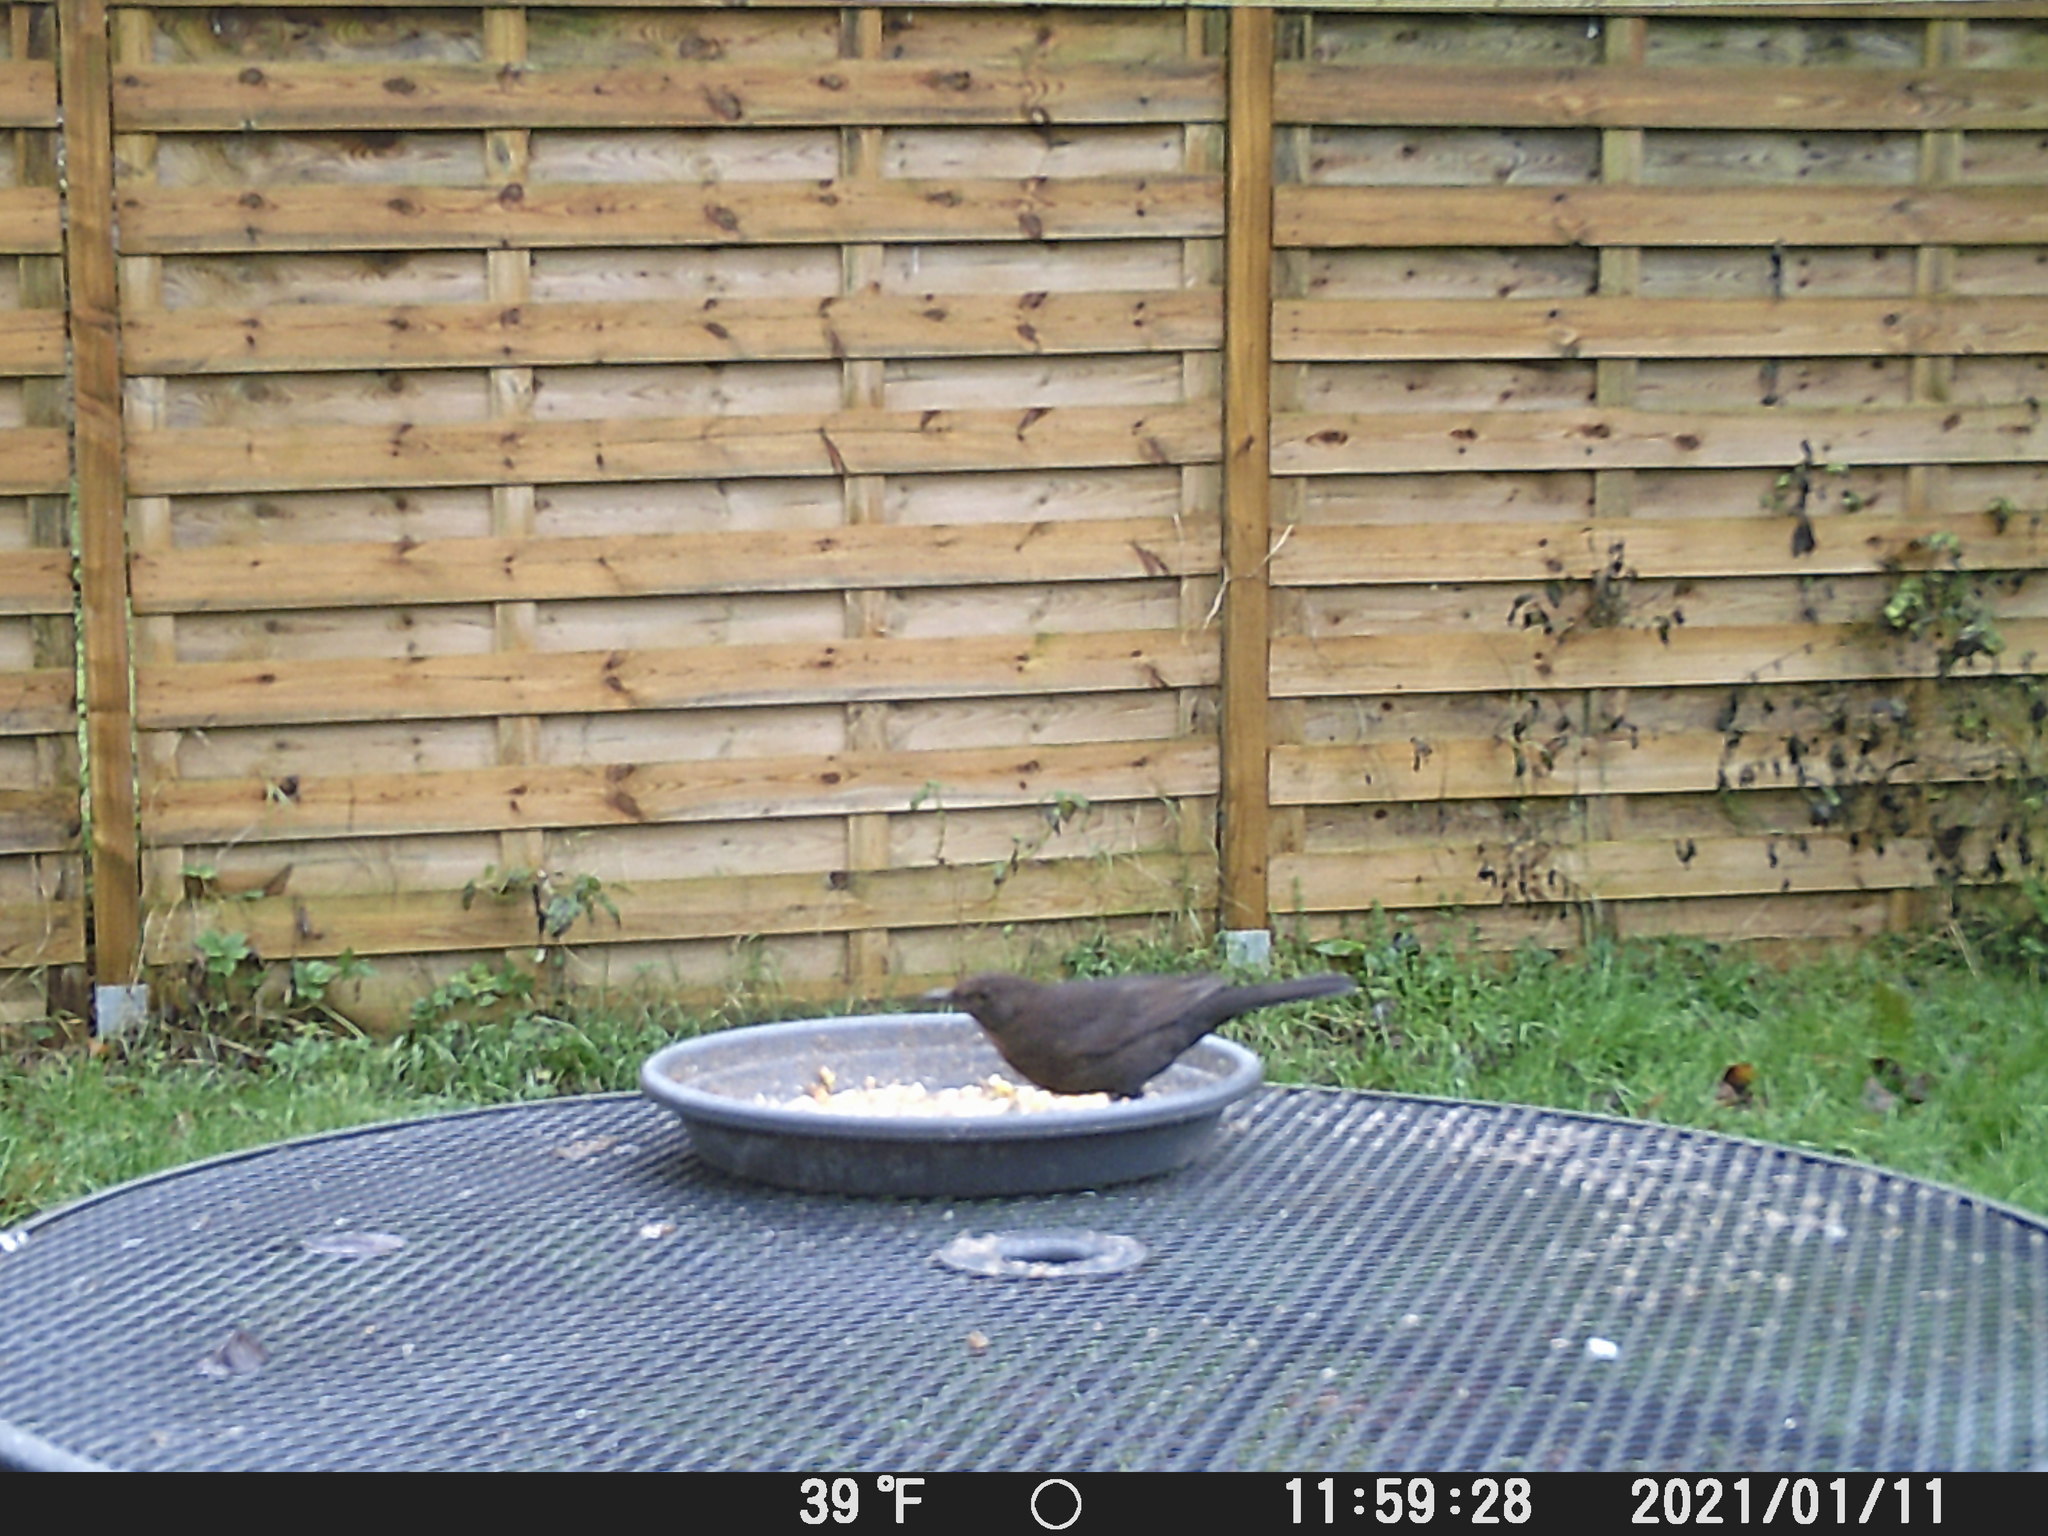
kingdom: Animalia
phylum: Chordata
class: Aves
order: Passeriformes
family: Turdidae
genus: Turdus
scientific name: Turdus merula
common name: Common blackbird
